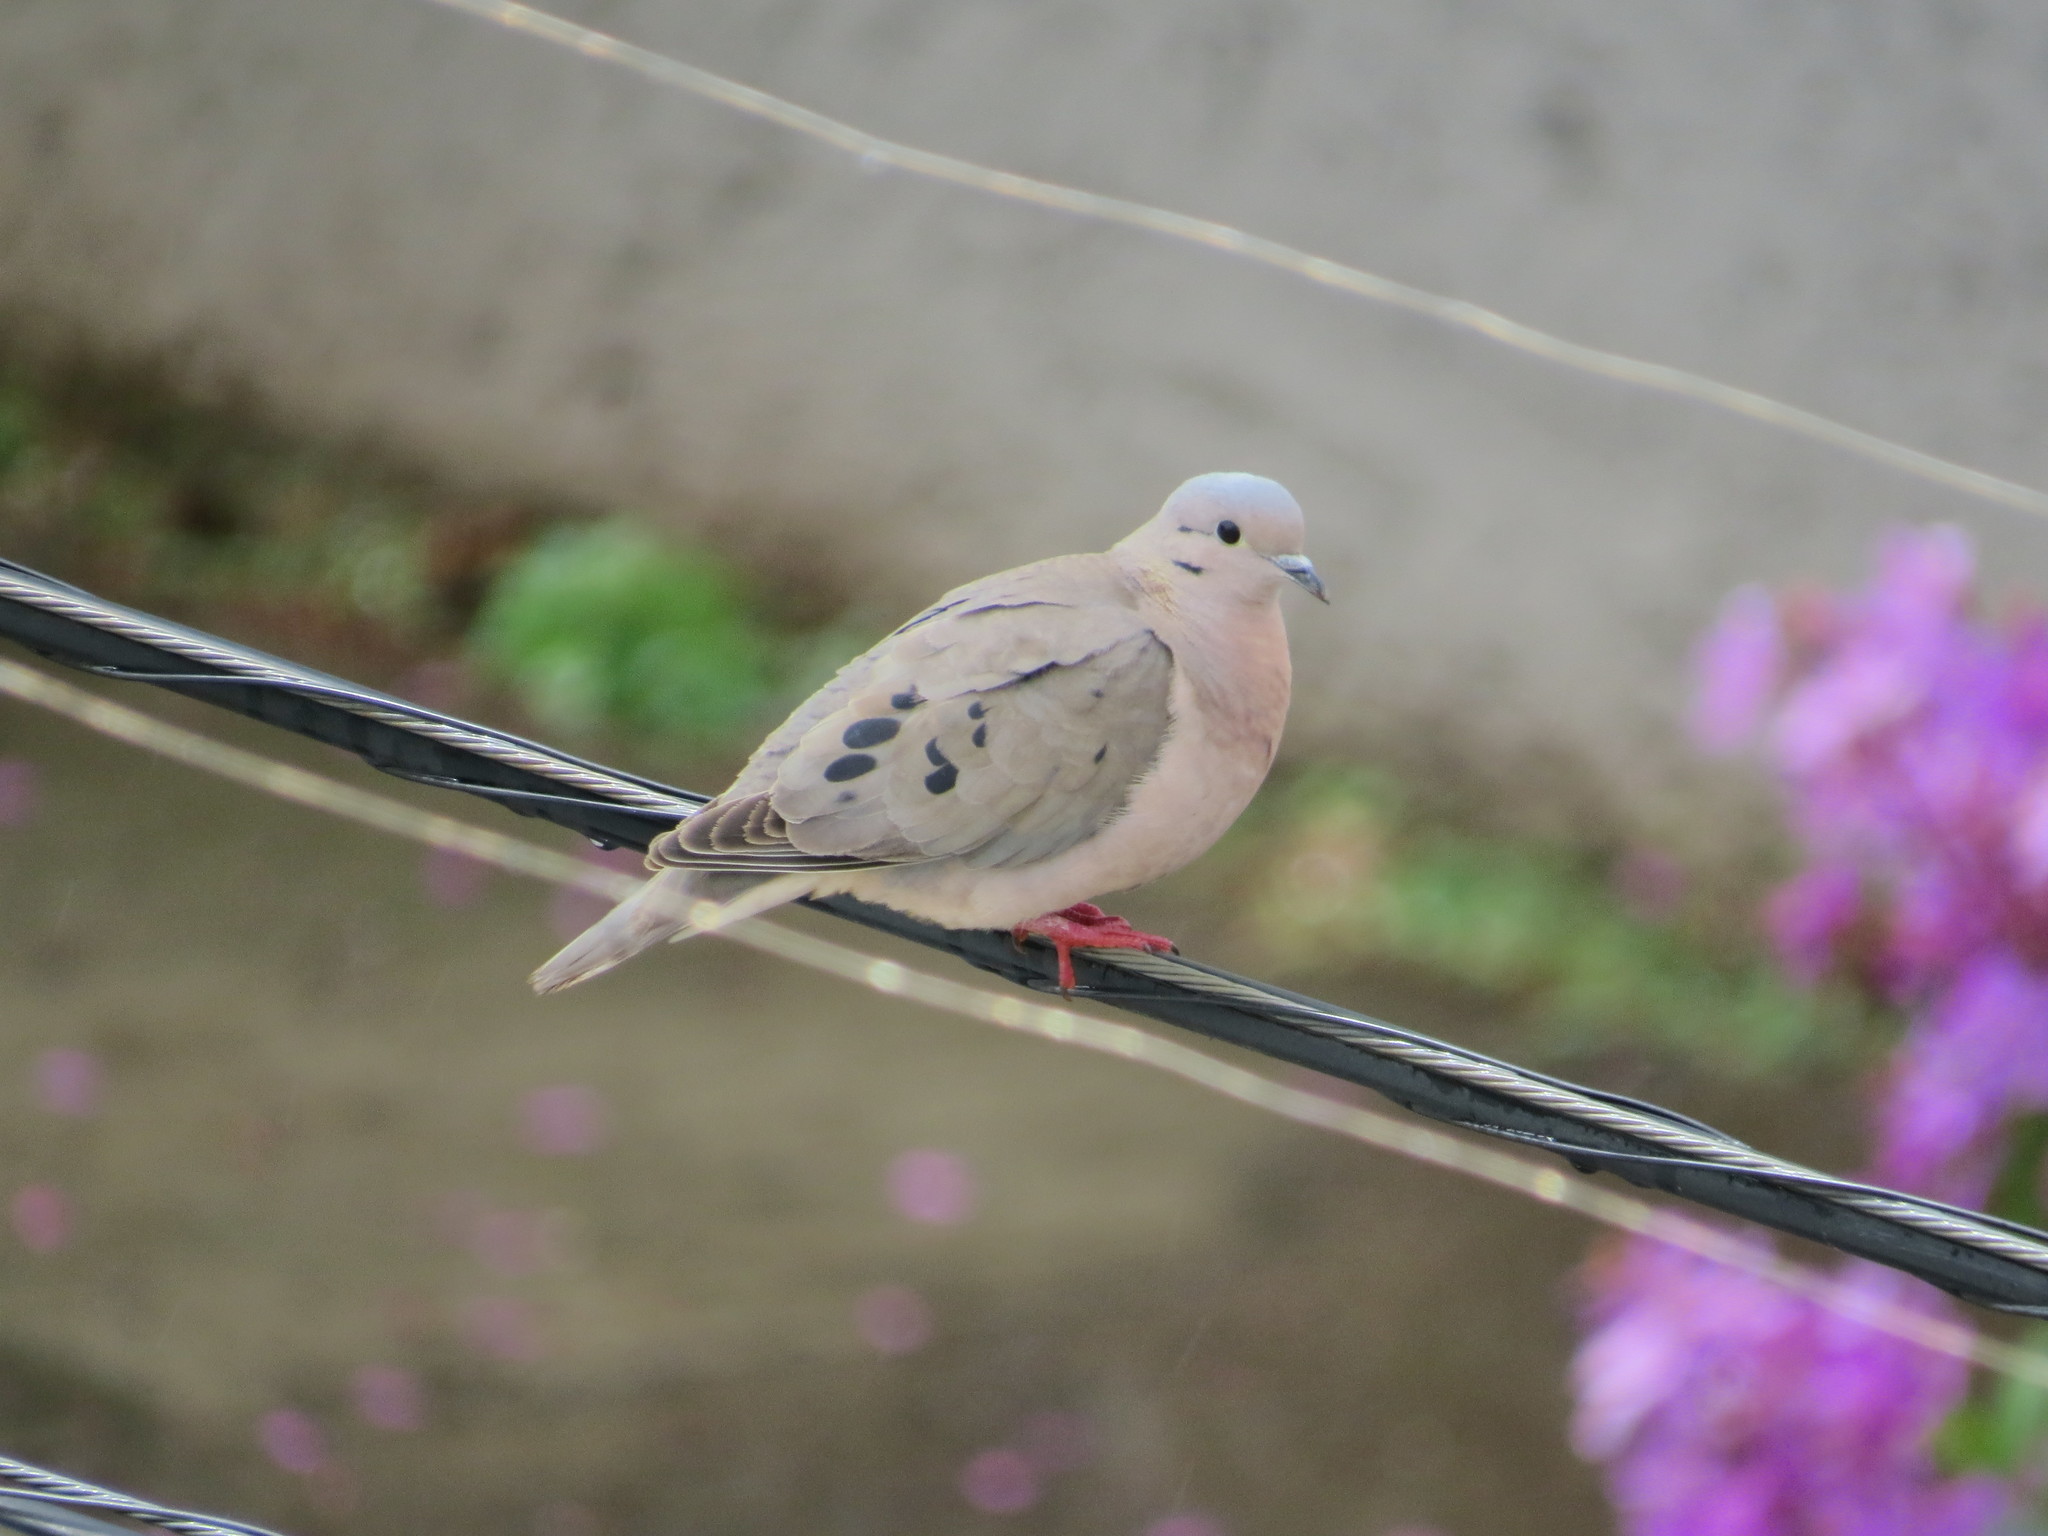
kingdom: Animalia
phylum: Chordata
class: Aves
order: Columbiformes
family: Columbidae
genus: Zenaida
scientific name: Zenaida auriculata
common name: Eared dove
